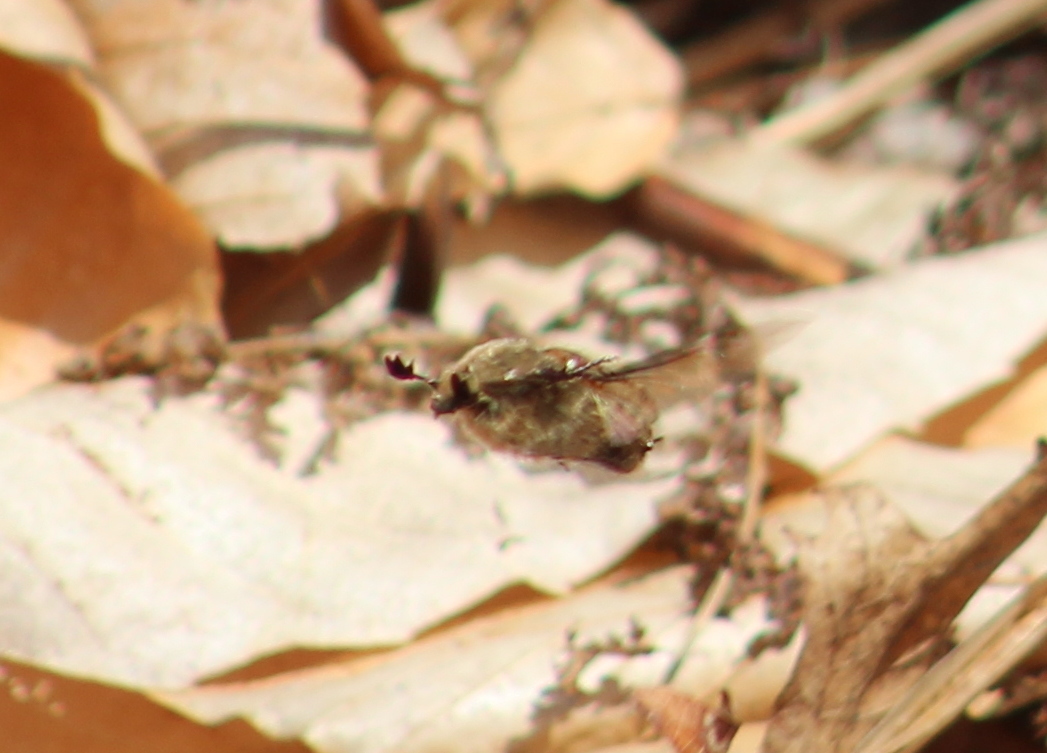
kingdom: Animalia
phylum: Arthropoda
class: Insecta
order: Coleoptera
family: Scarabaeidae
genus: Euphoria
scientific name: Euphoria inda
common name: Bumble flower beetle
